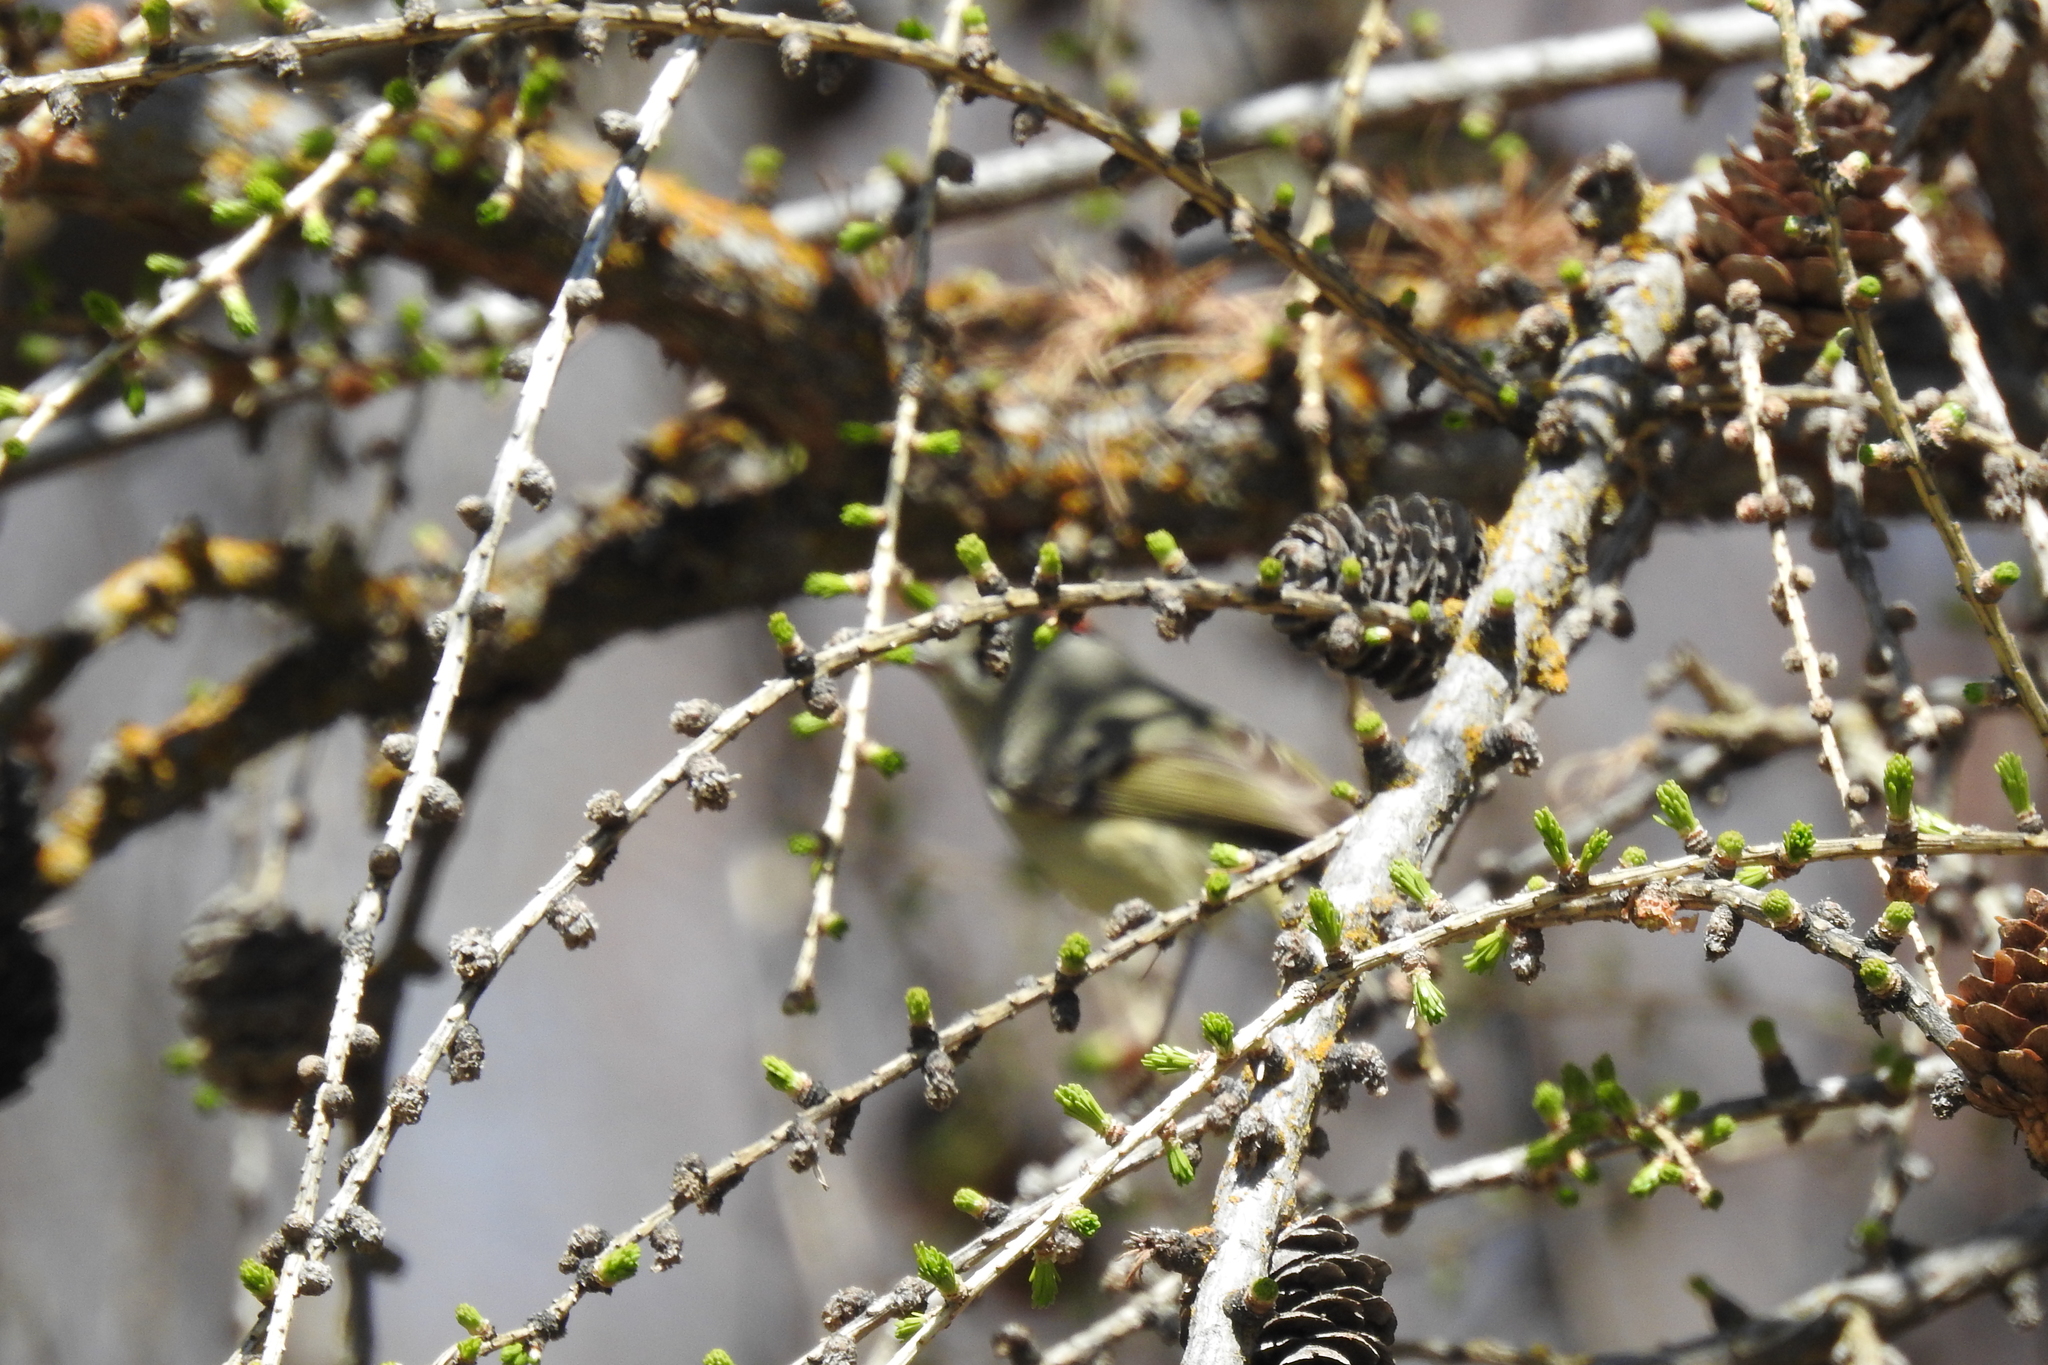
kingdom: Animalia
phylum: Chordata
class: Aves
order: Passeriformes
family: Regulidae
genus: Regulus
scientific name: Regulus calendula
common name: Ruby-crowned kinglet
